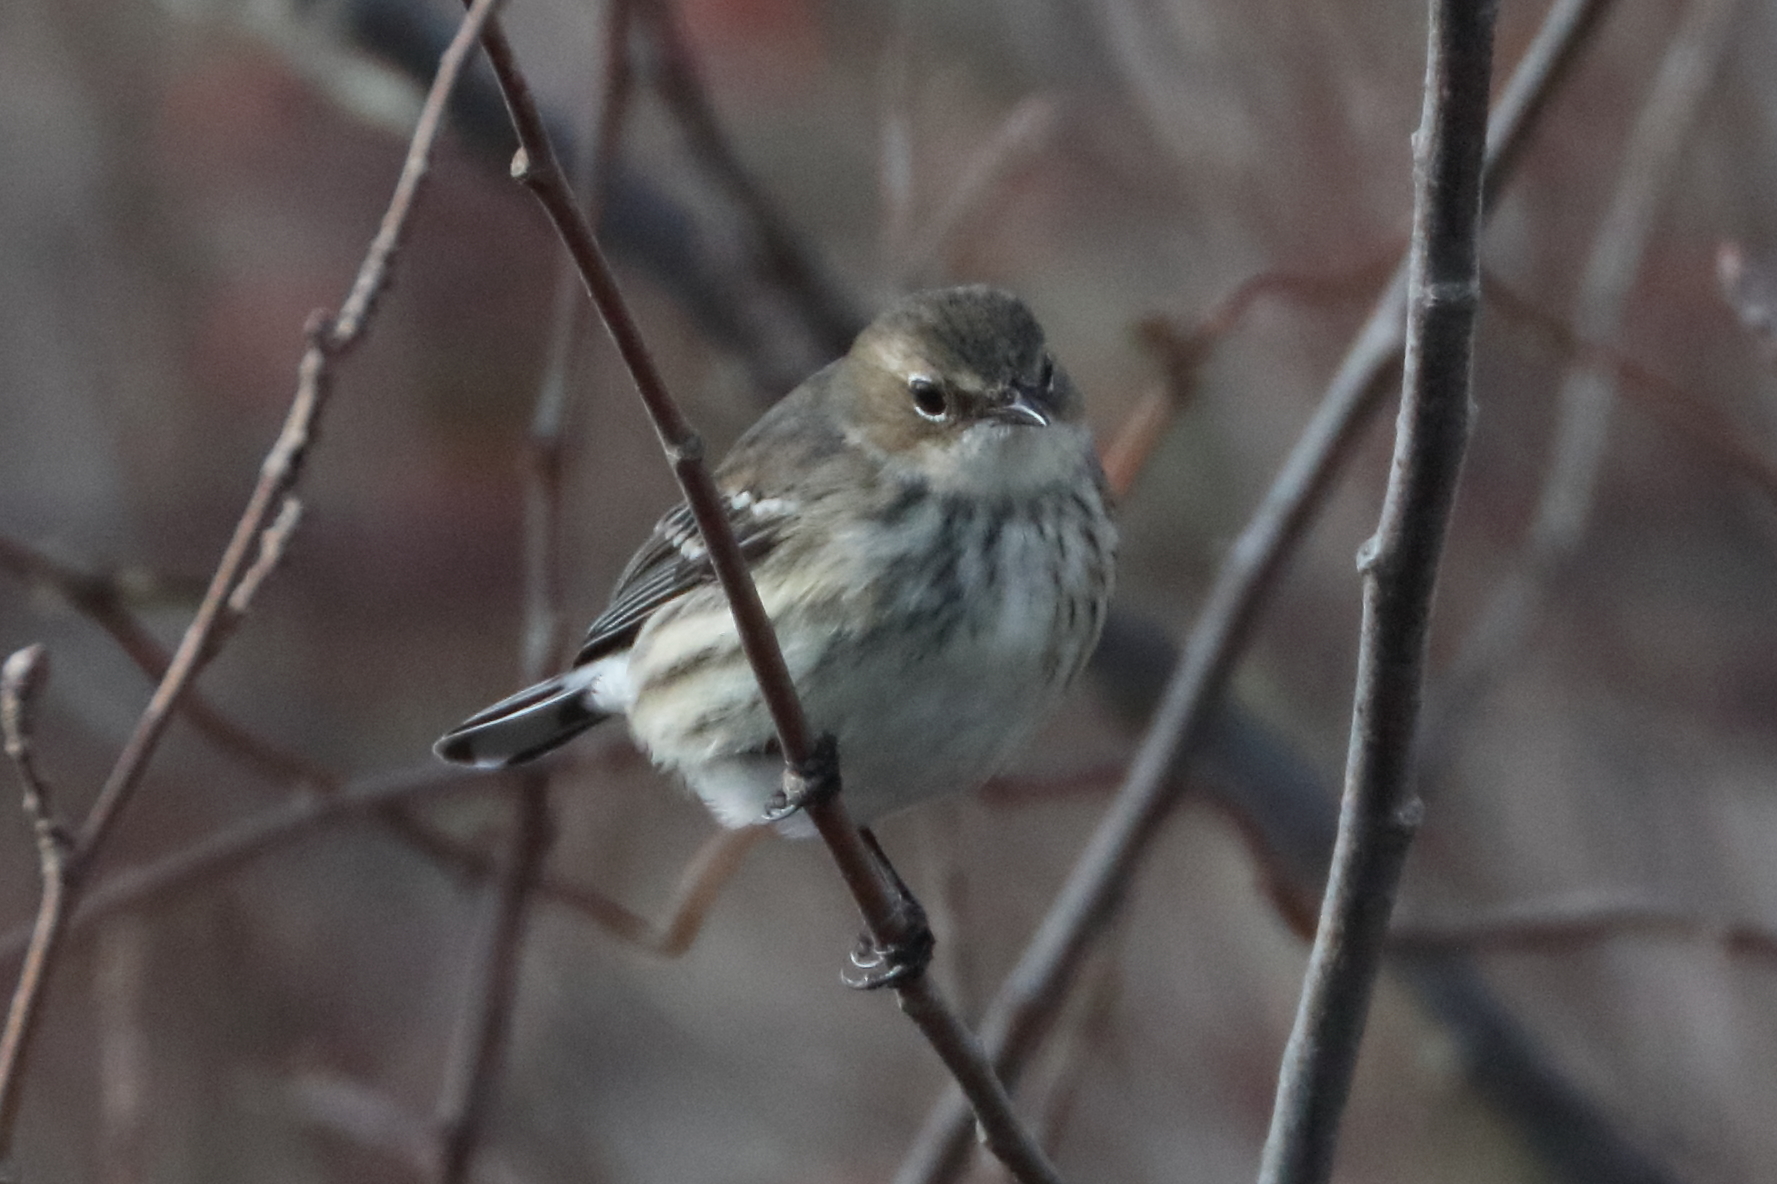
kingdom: Animalia
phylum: Chordata
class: Aves
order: Passeriformes
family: Parulidae
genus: Setophaga
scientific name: Setophaga coronata
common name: Myrtle warbler
